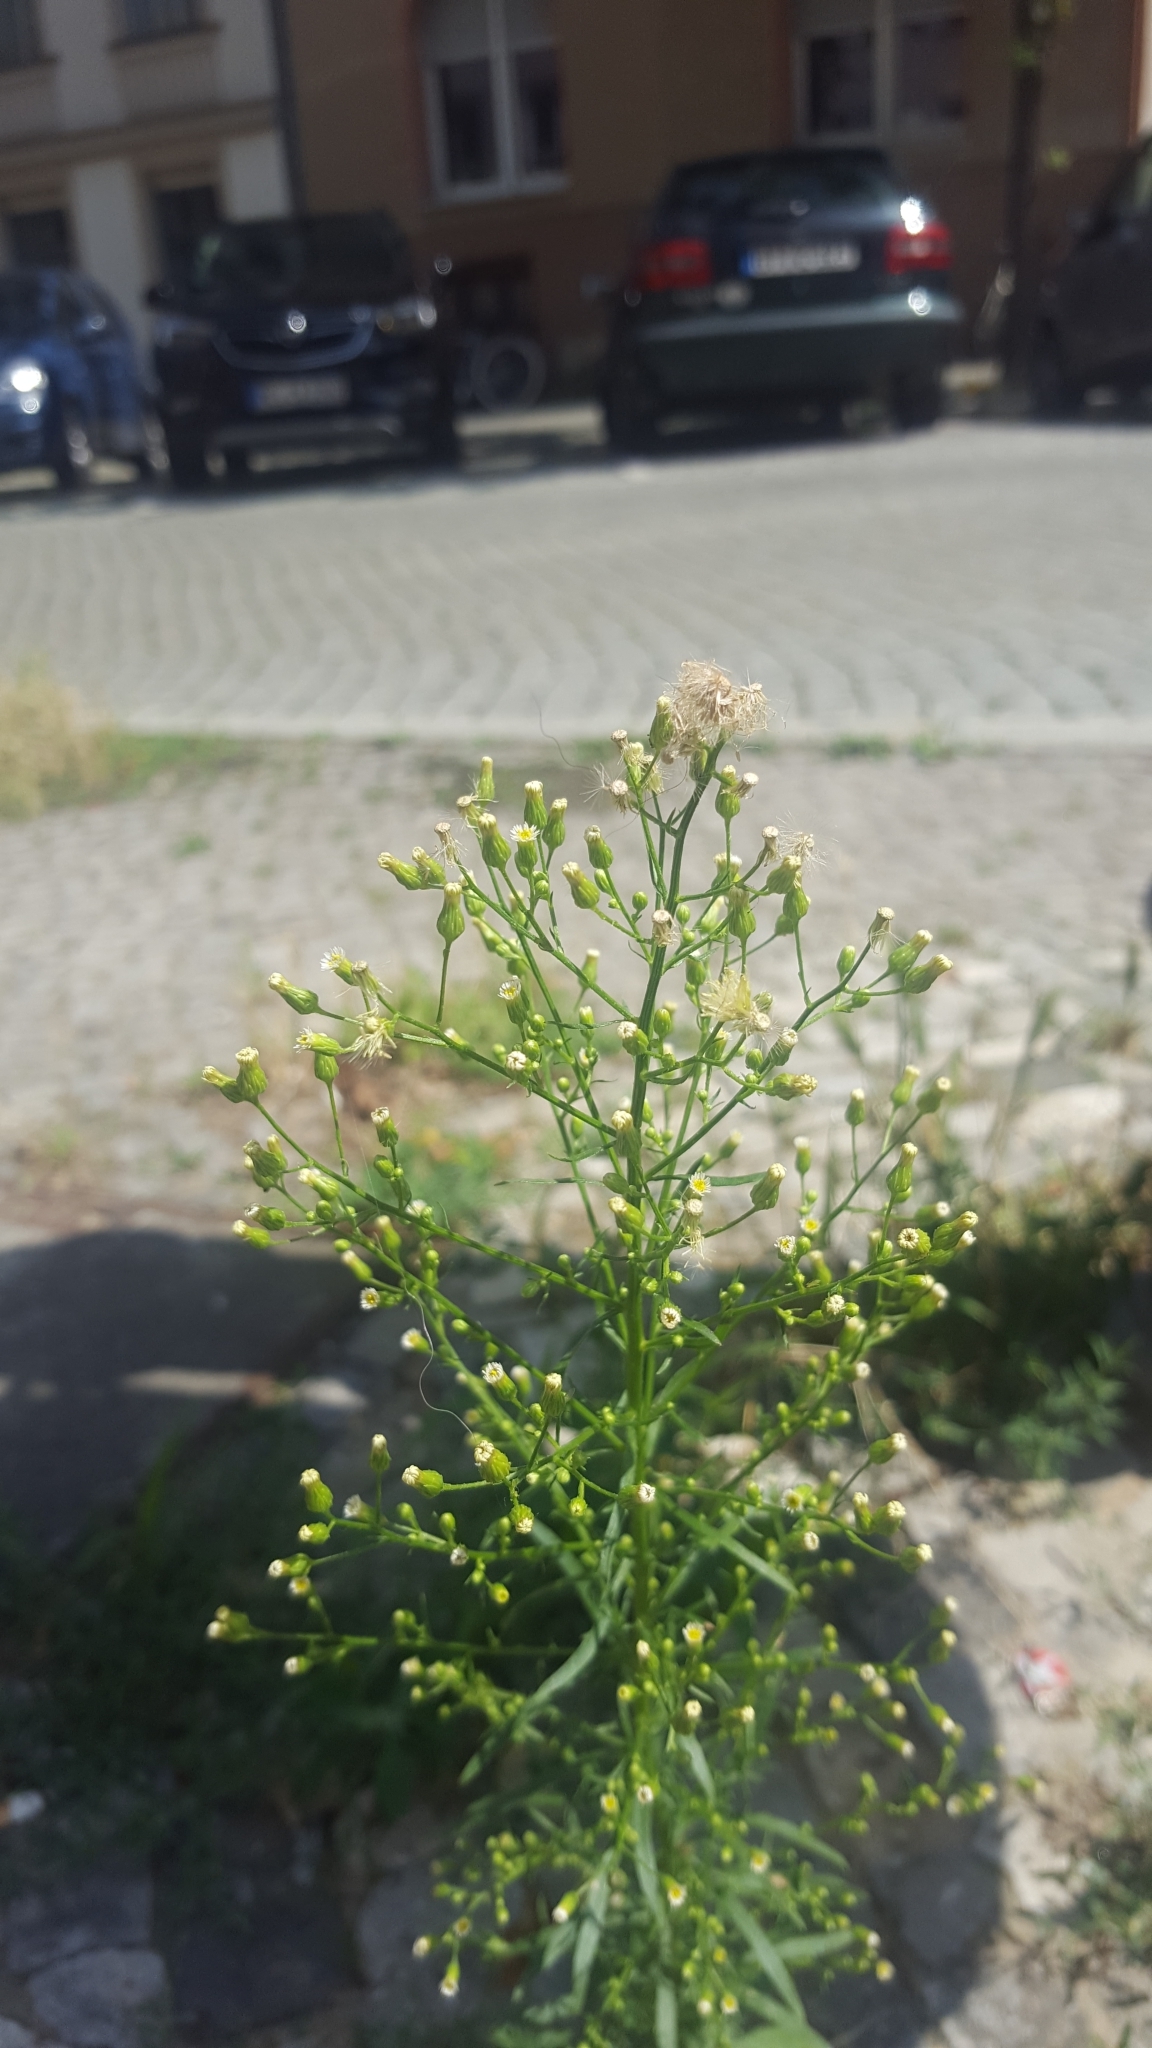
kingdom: Plantae
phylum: Tracheophyta
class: Magnoliopsida
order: Asterales
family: Asteraceae
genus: Erigeron
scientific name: Erigeron canadensis
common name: Canadian fleabane
